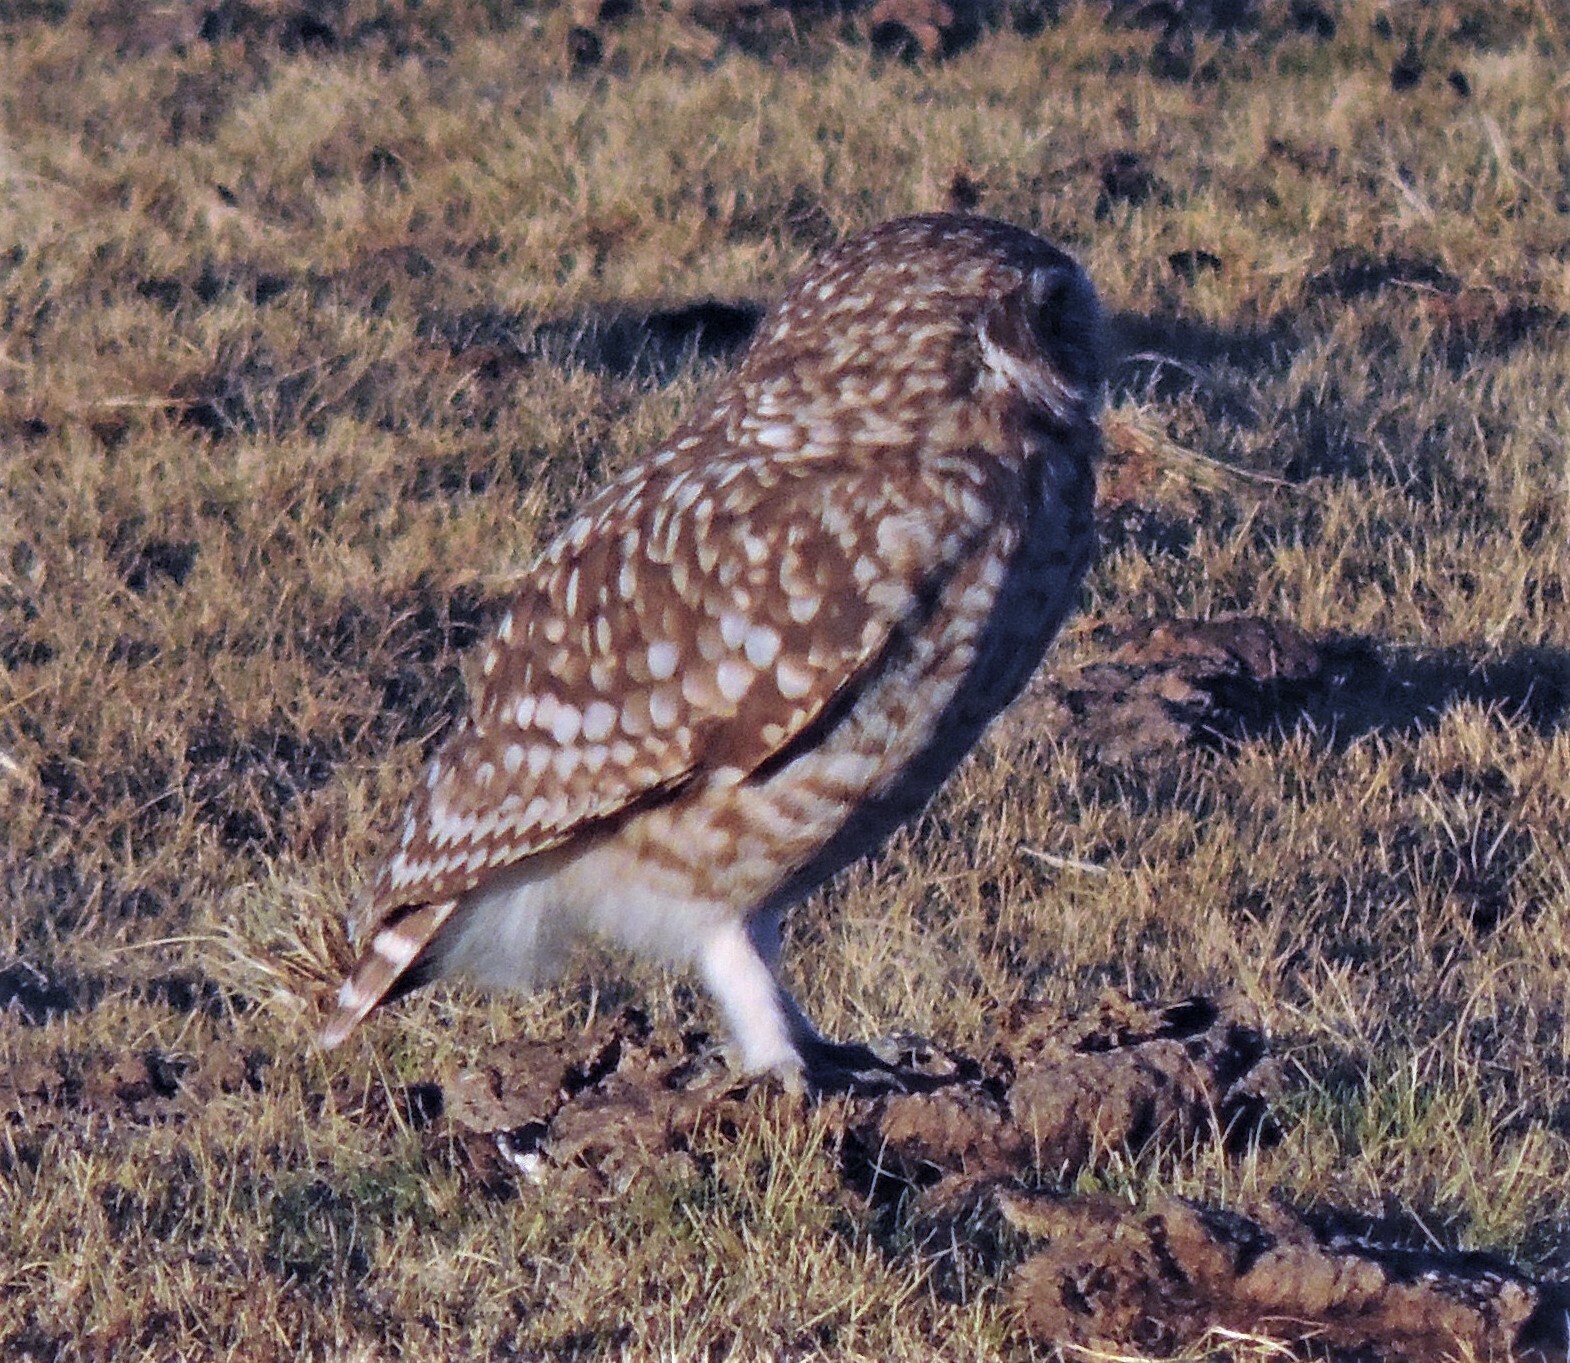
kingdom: Animalia
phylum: Chordata
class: Aves
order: Strigiformes
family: Strigidae
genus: Athene
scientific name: Athene cunicularia
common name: Burrowing owl
